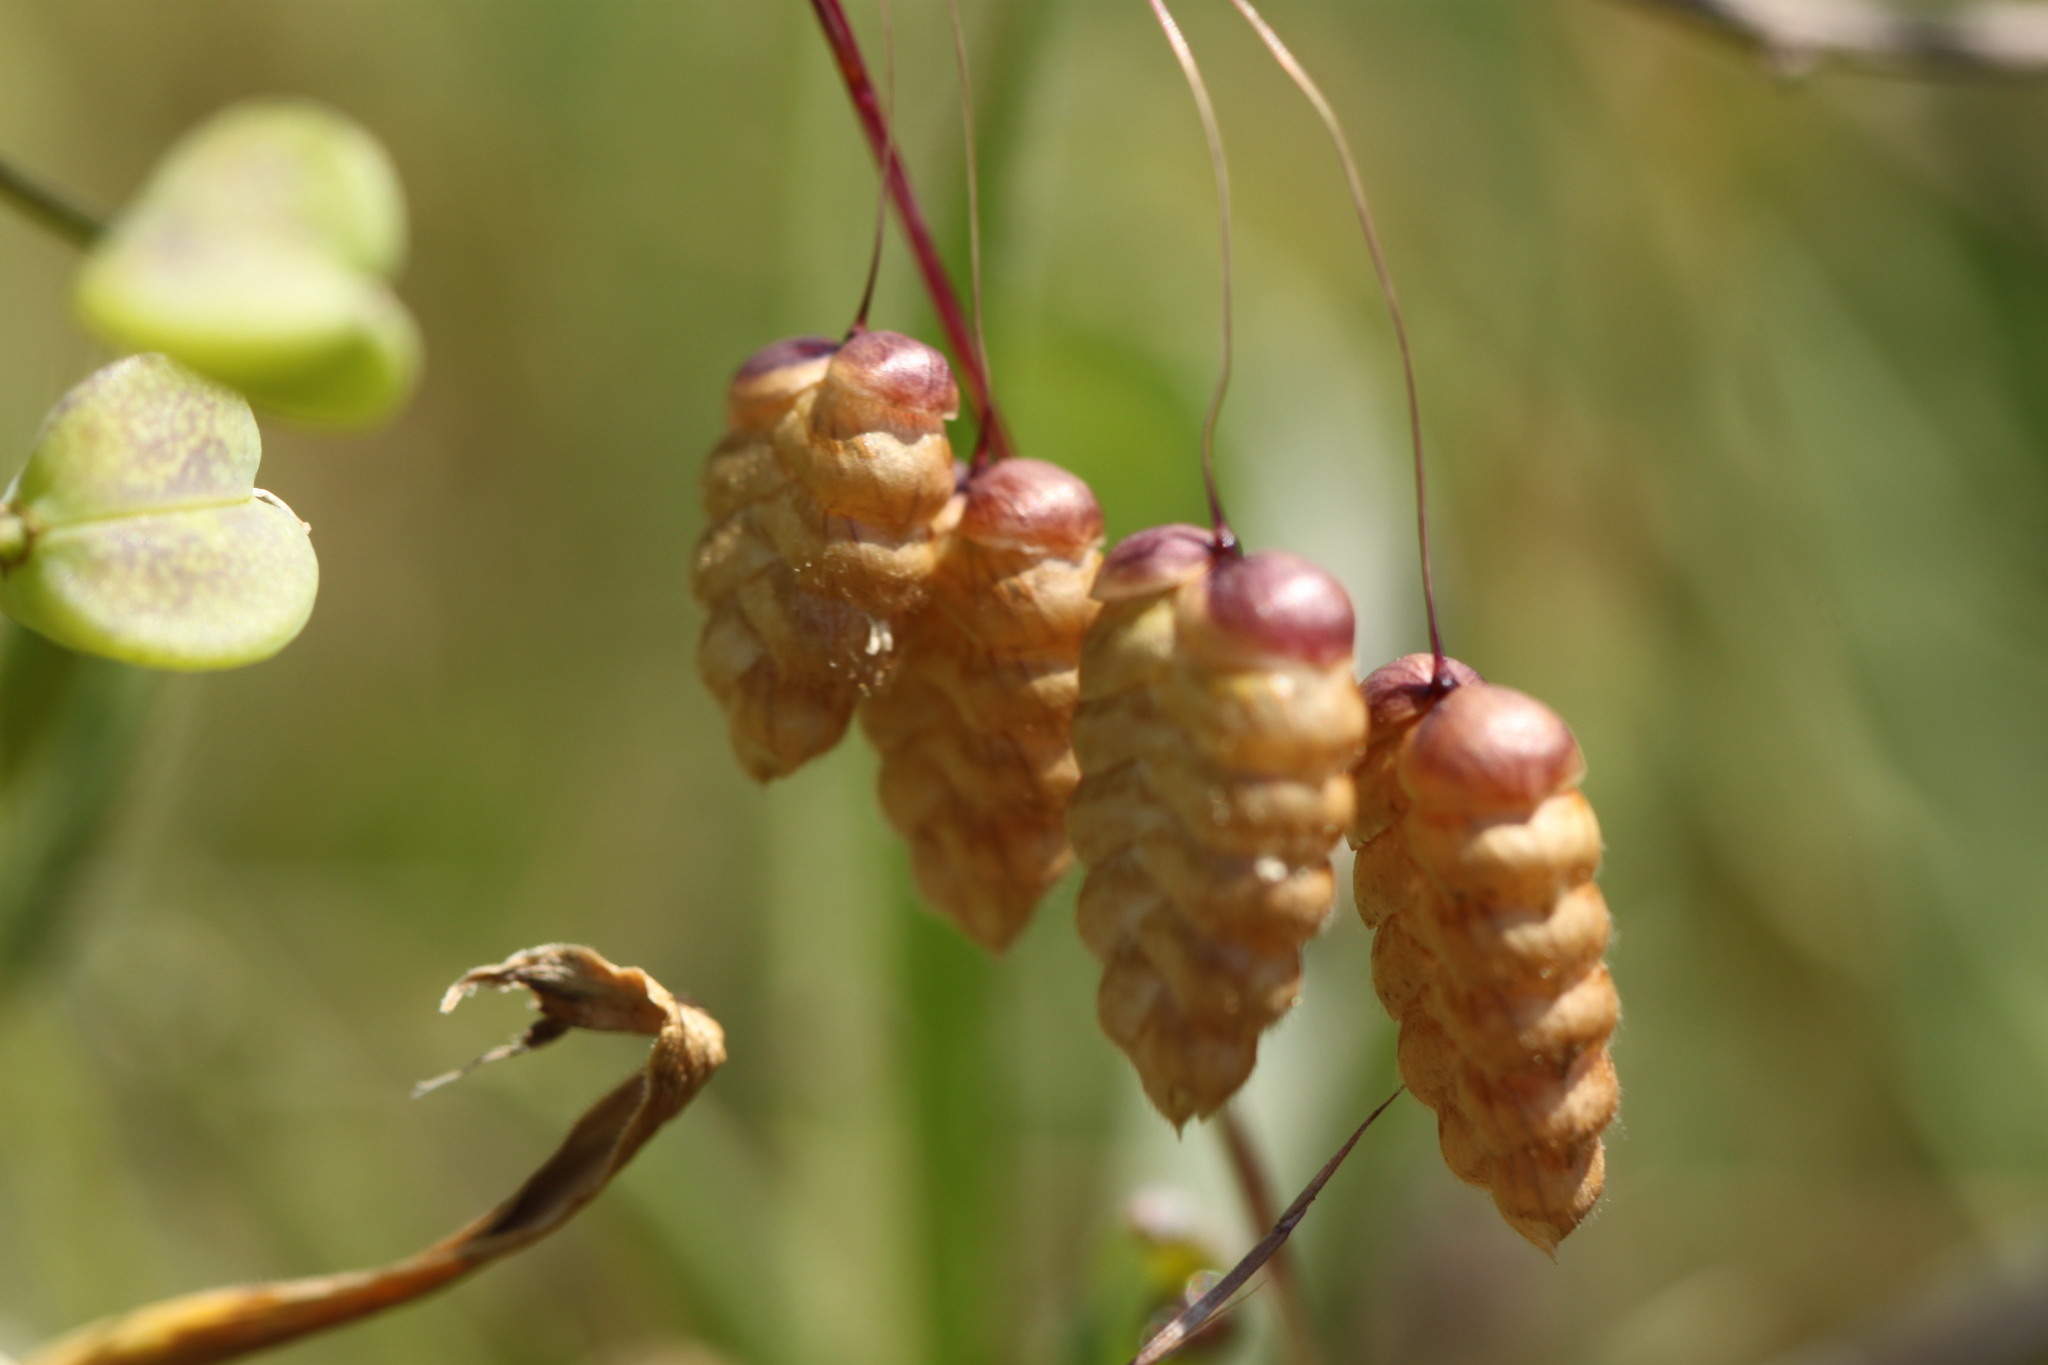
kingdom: Plantae
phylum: Tracheophyta
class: Liliopsida
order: Poales
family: Poaceae
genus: Briza
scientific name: Briza maxima
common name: Big quakinggrass
